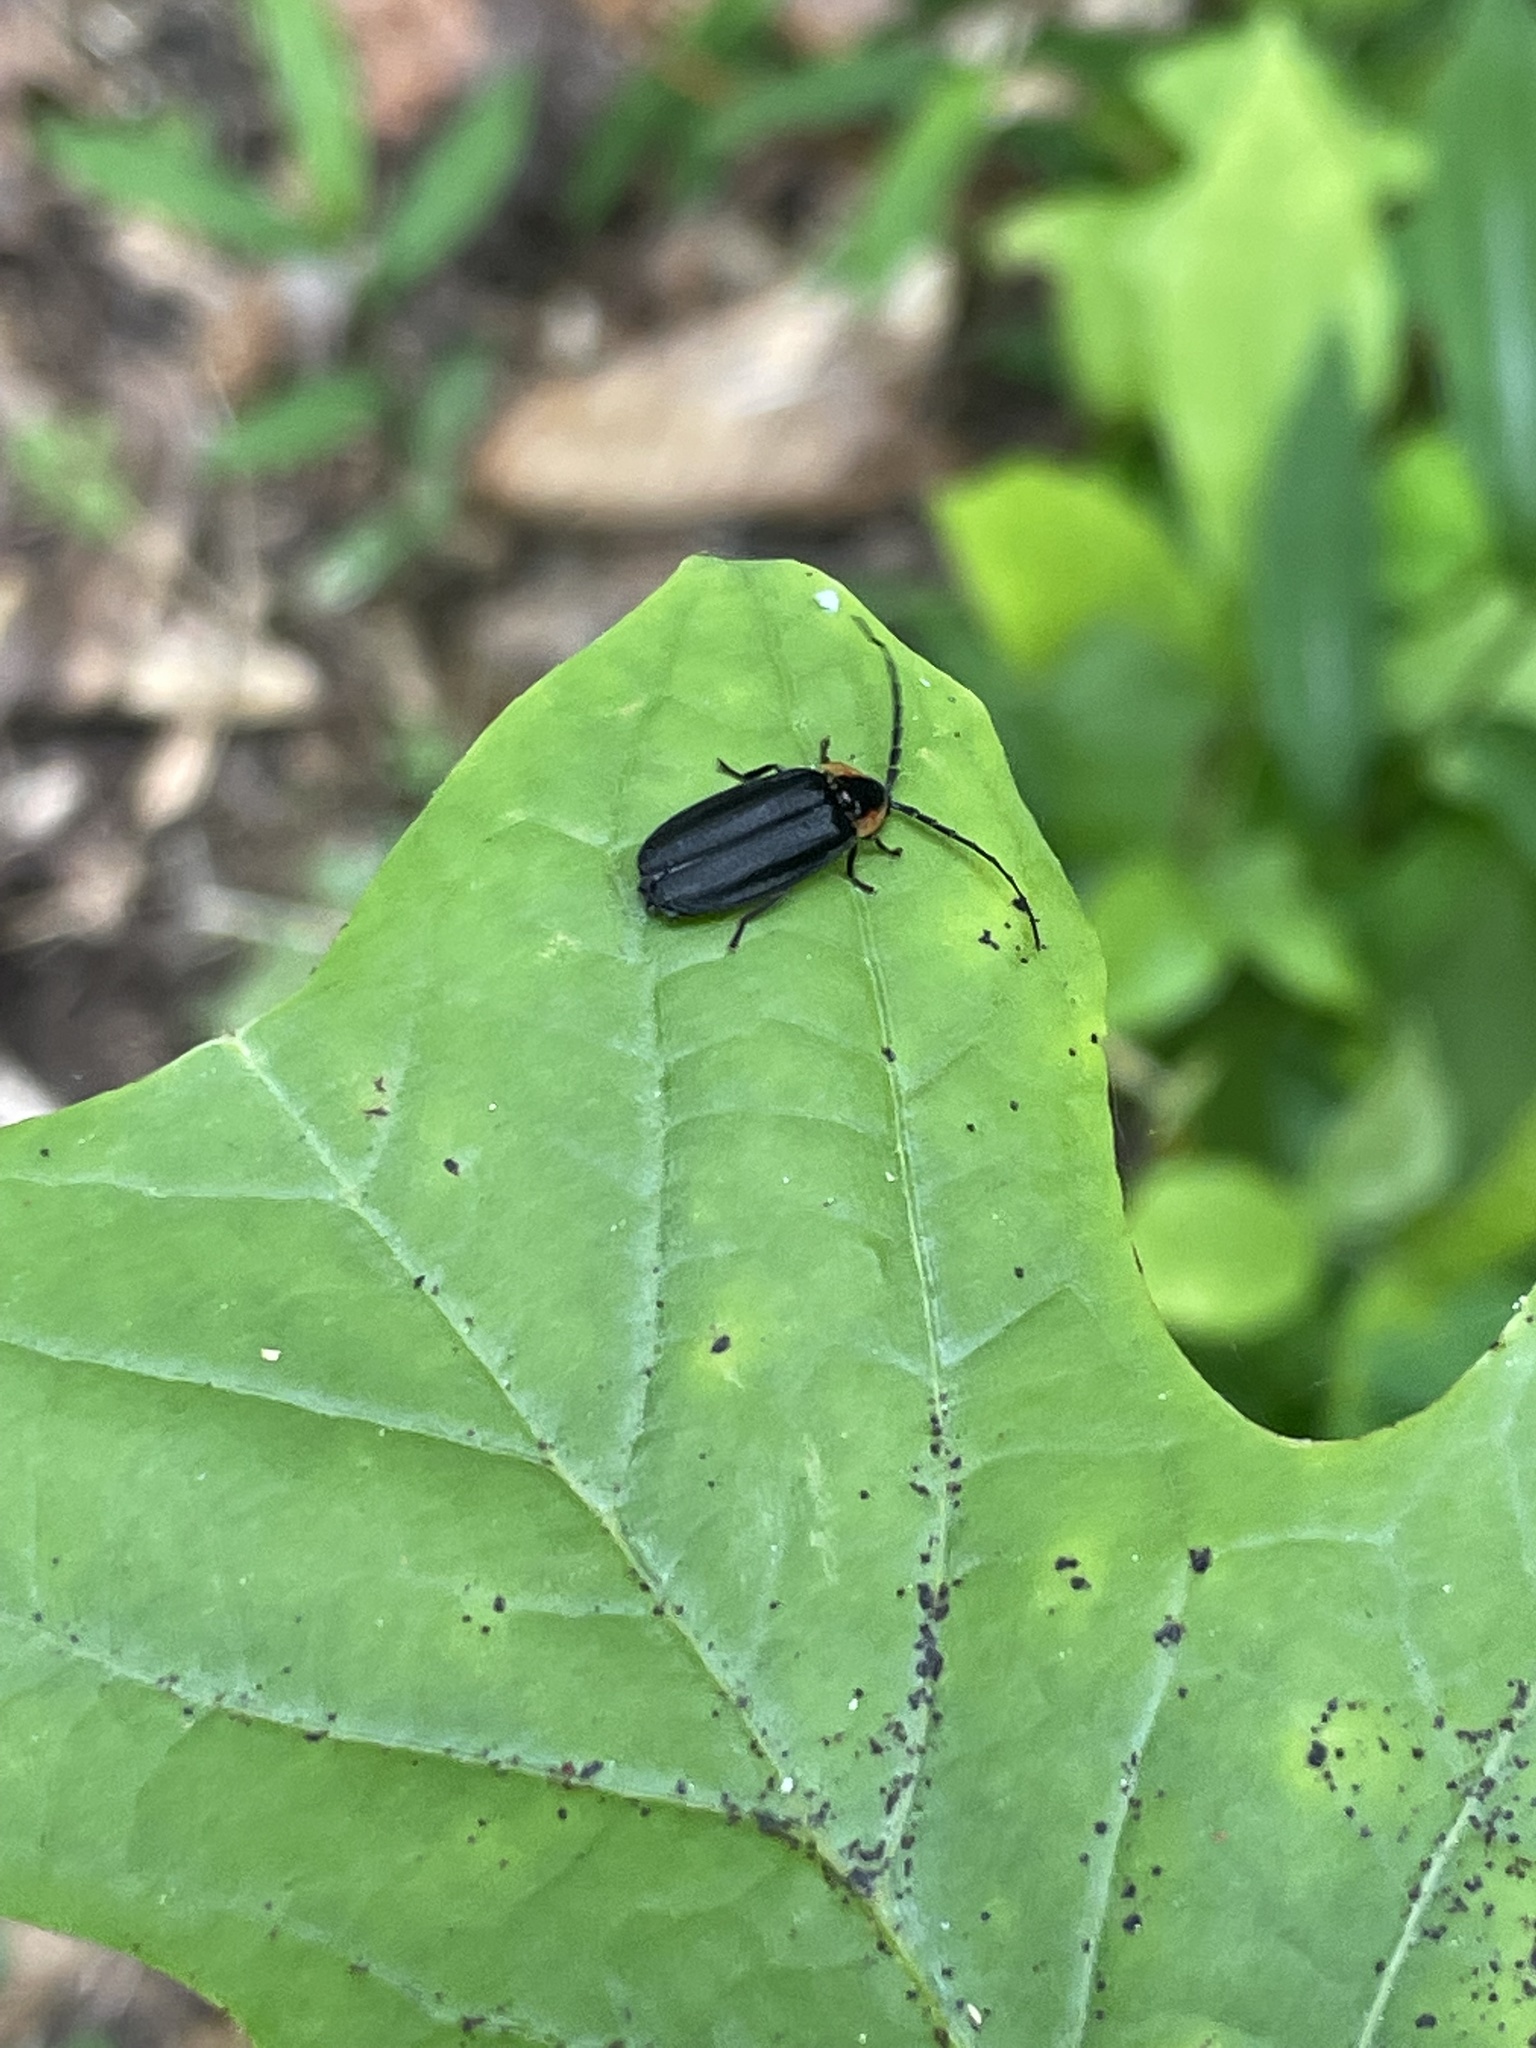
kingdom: Animalia
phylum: Arthropoda
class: Insecta
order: Coleoptera
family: Lampyridae
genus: Lucidota
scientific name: Lucidota atra
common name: Black firefly
